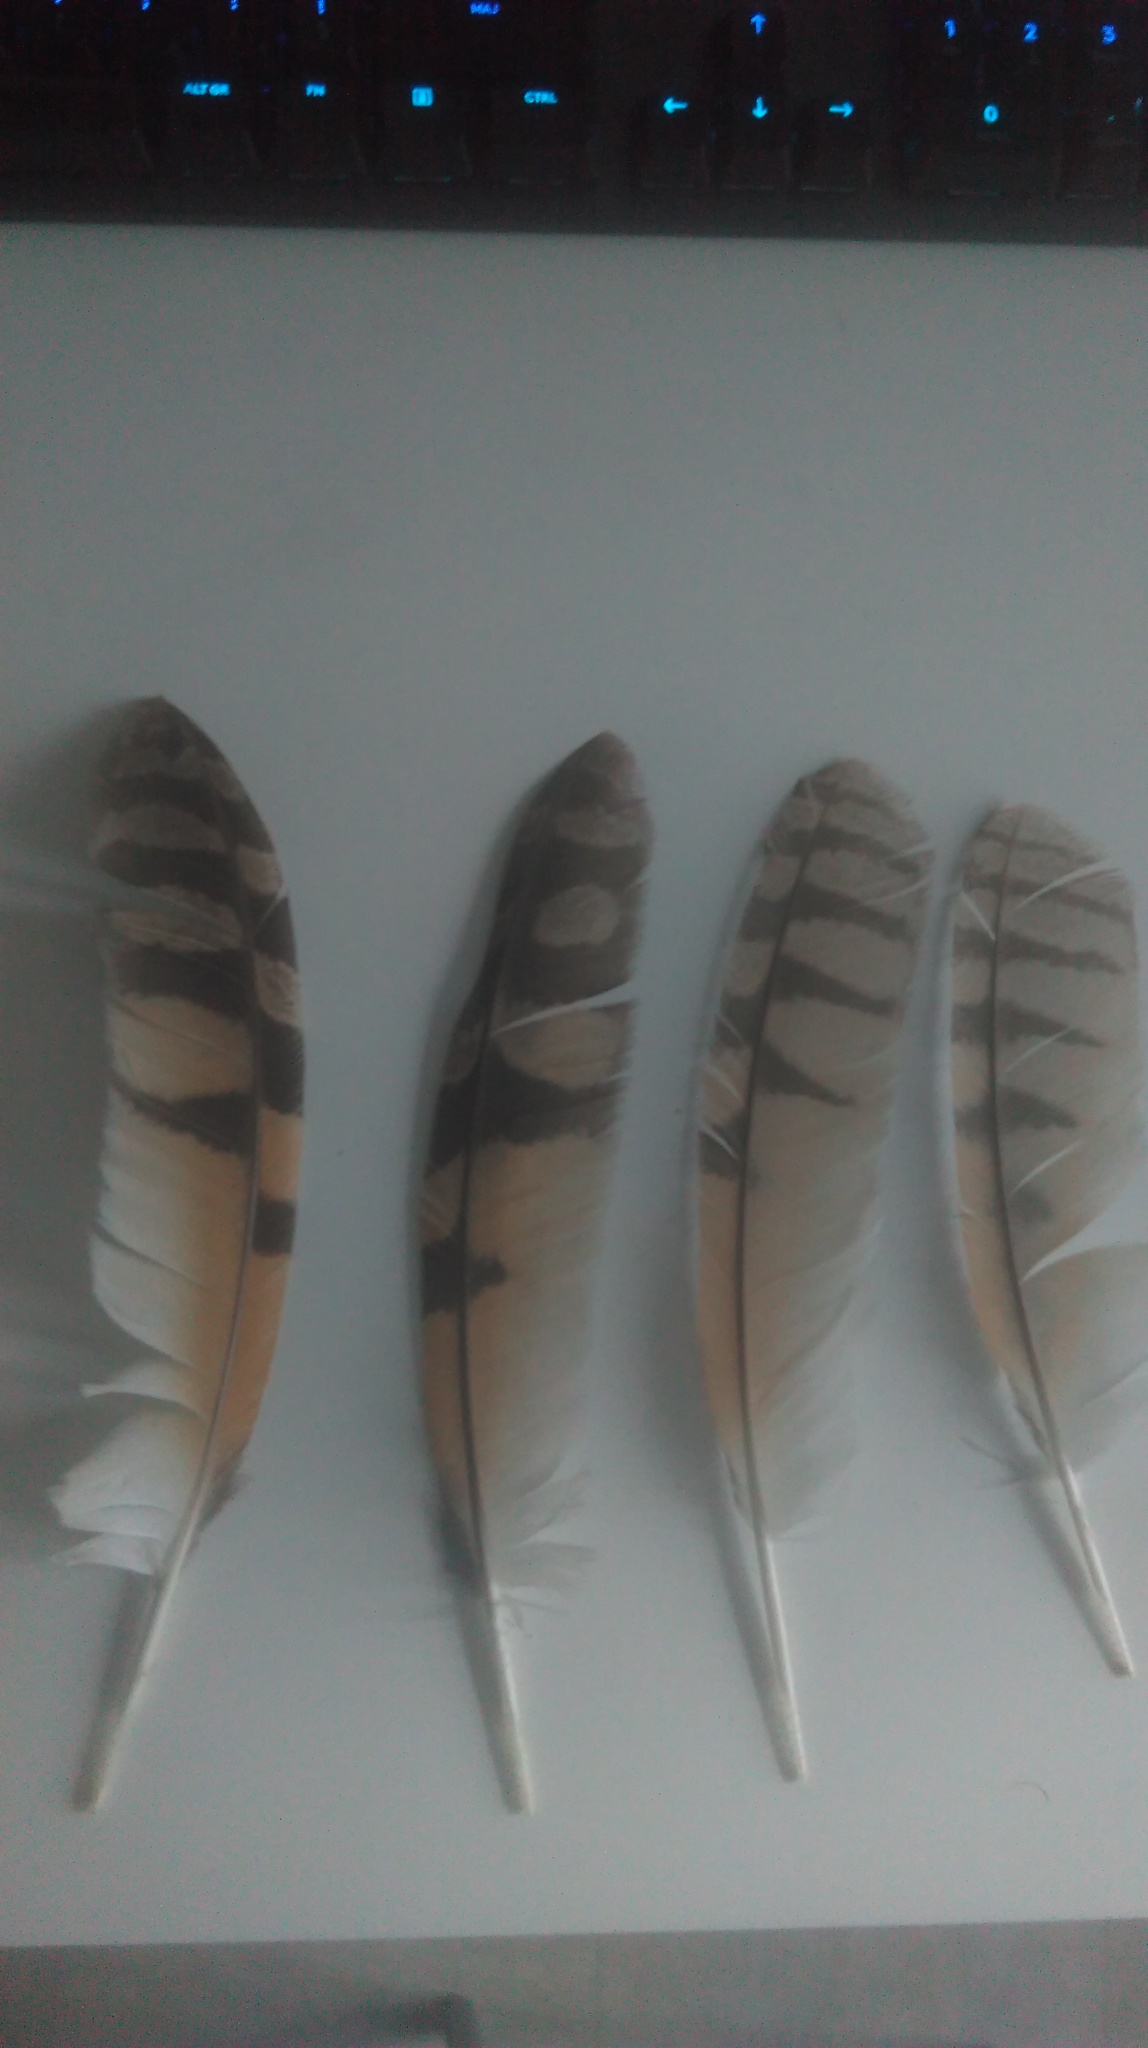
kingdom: Animalia
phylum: Chordata
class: Aves
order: Strigiformes
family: Strigidae
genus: Asio
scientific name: Asio otus
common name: Long-eared owl
